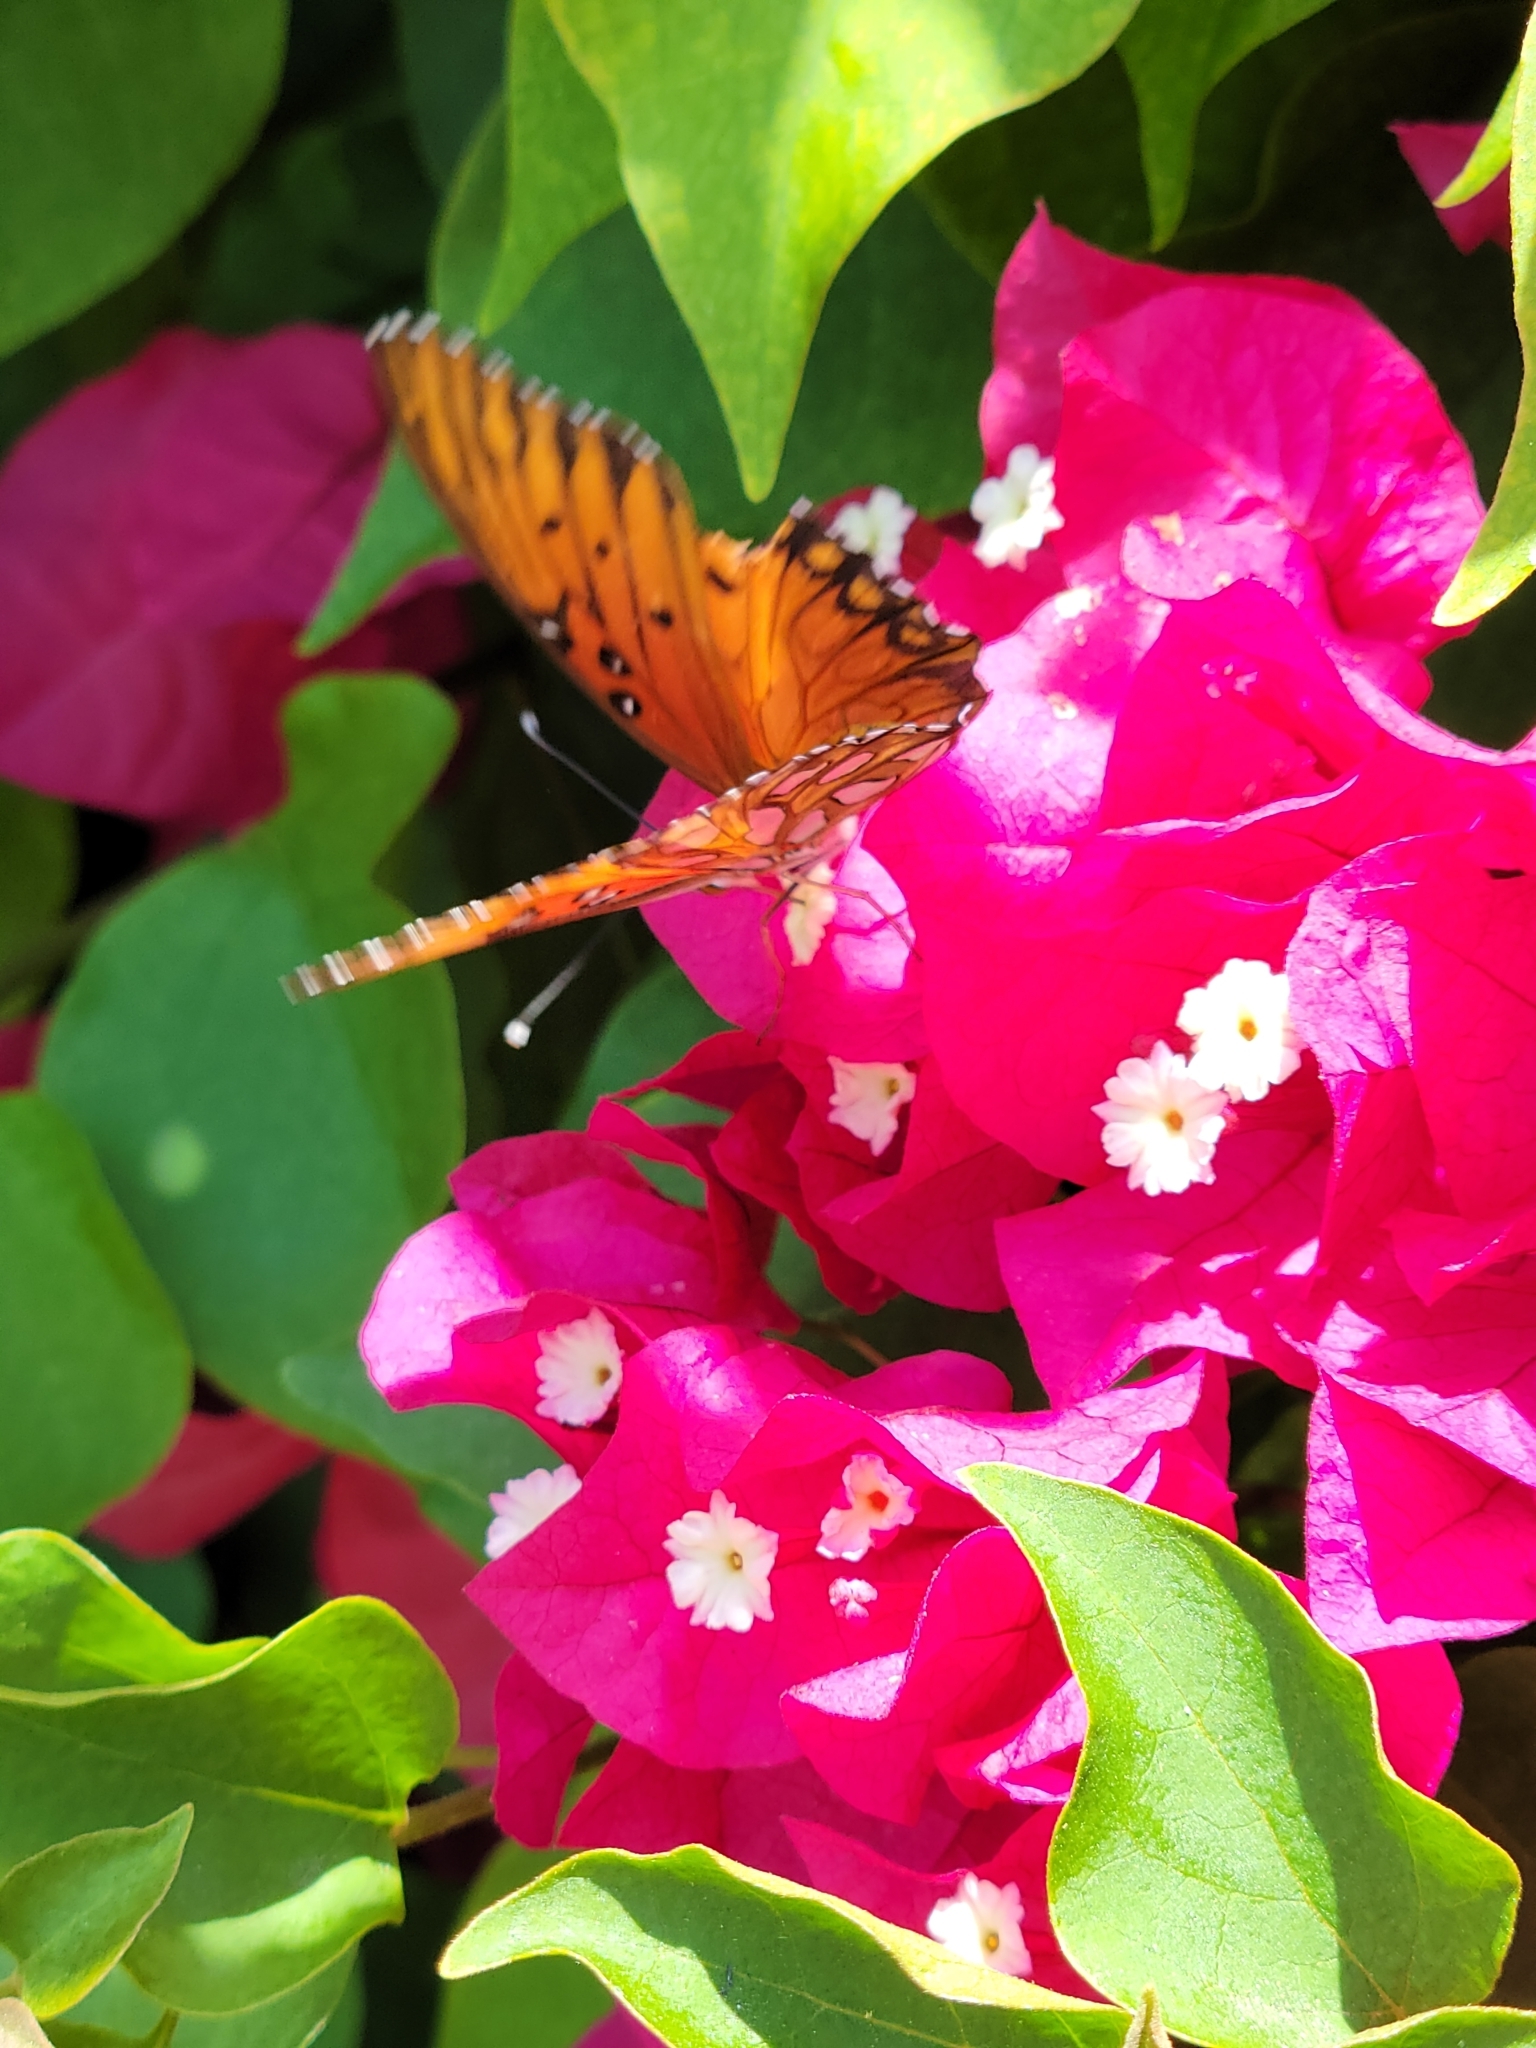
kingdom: Animalia
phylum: Arthropoda
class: Insecta
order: Lepidoptera
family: Nymphalidae
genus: Dione
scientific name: Dione vanillae
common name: Gulf fritillary
